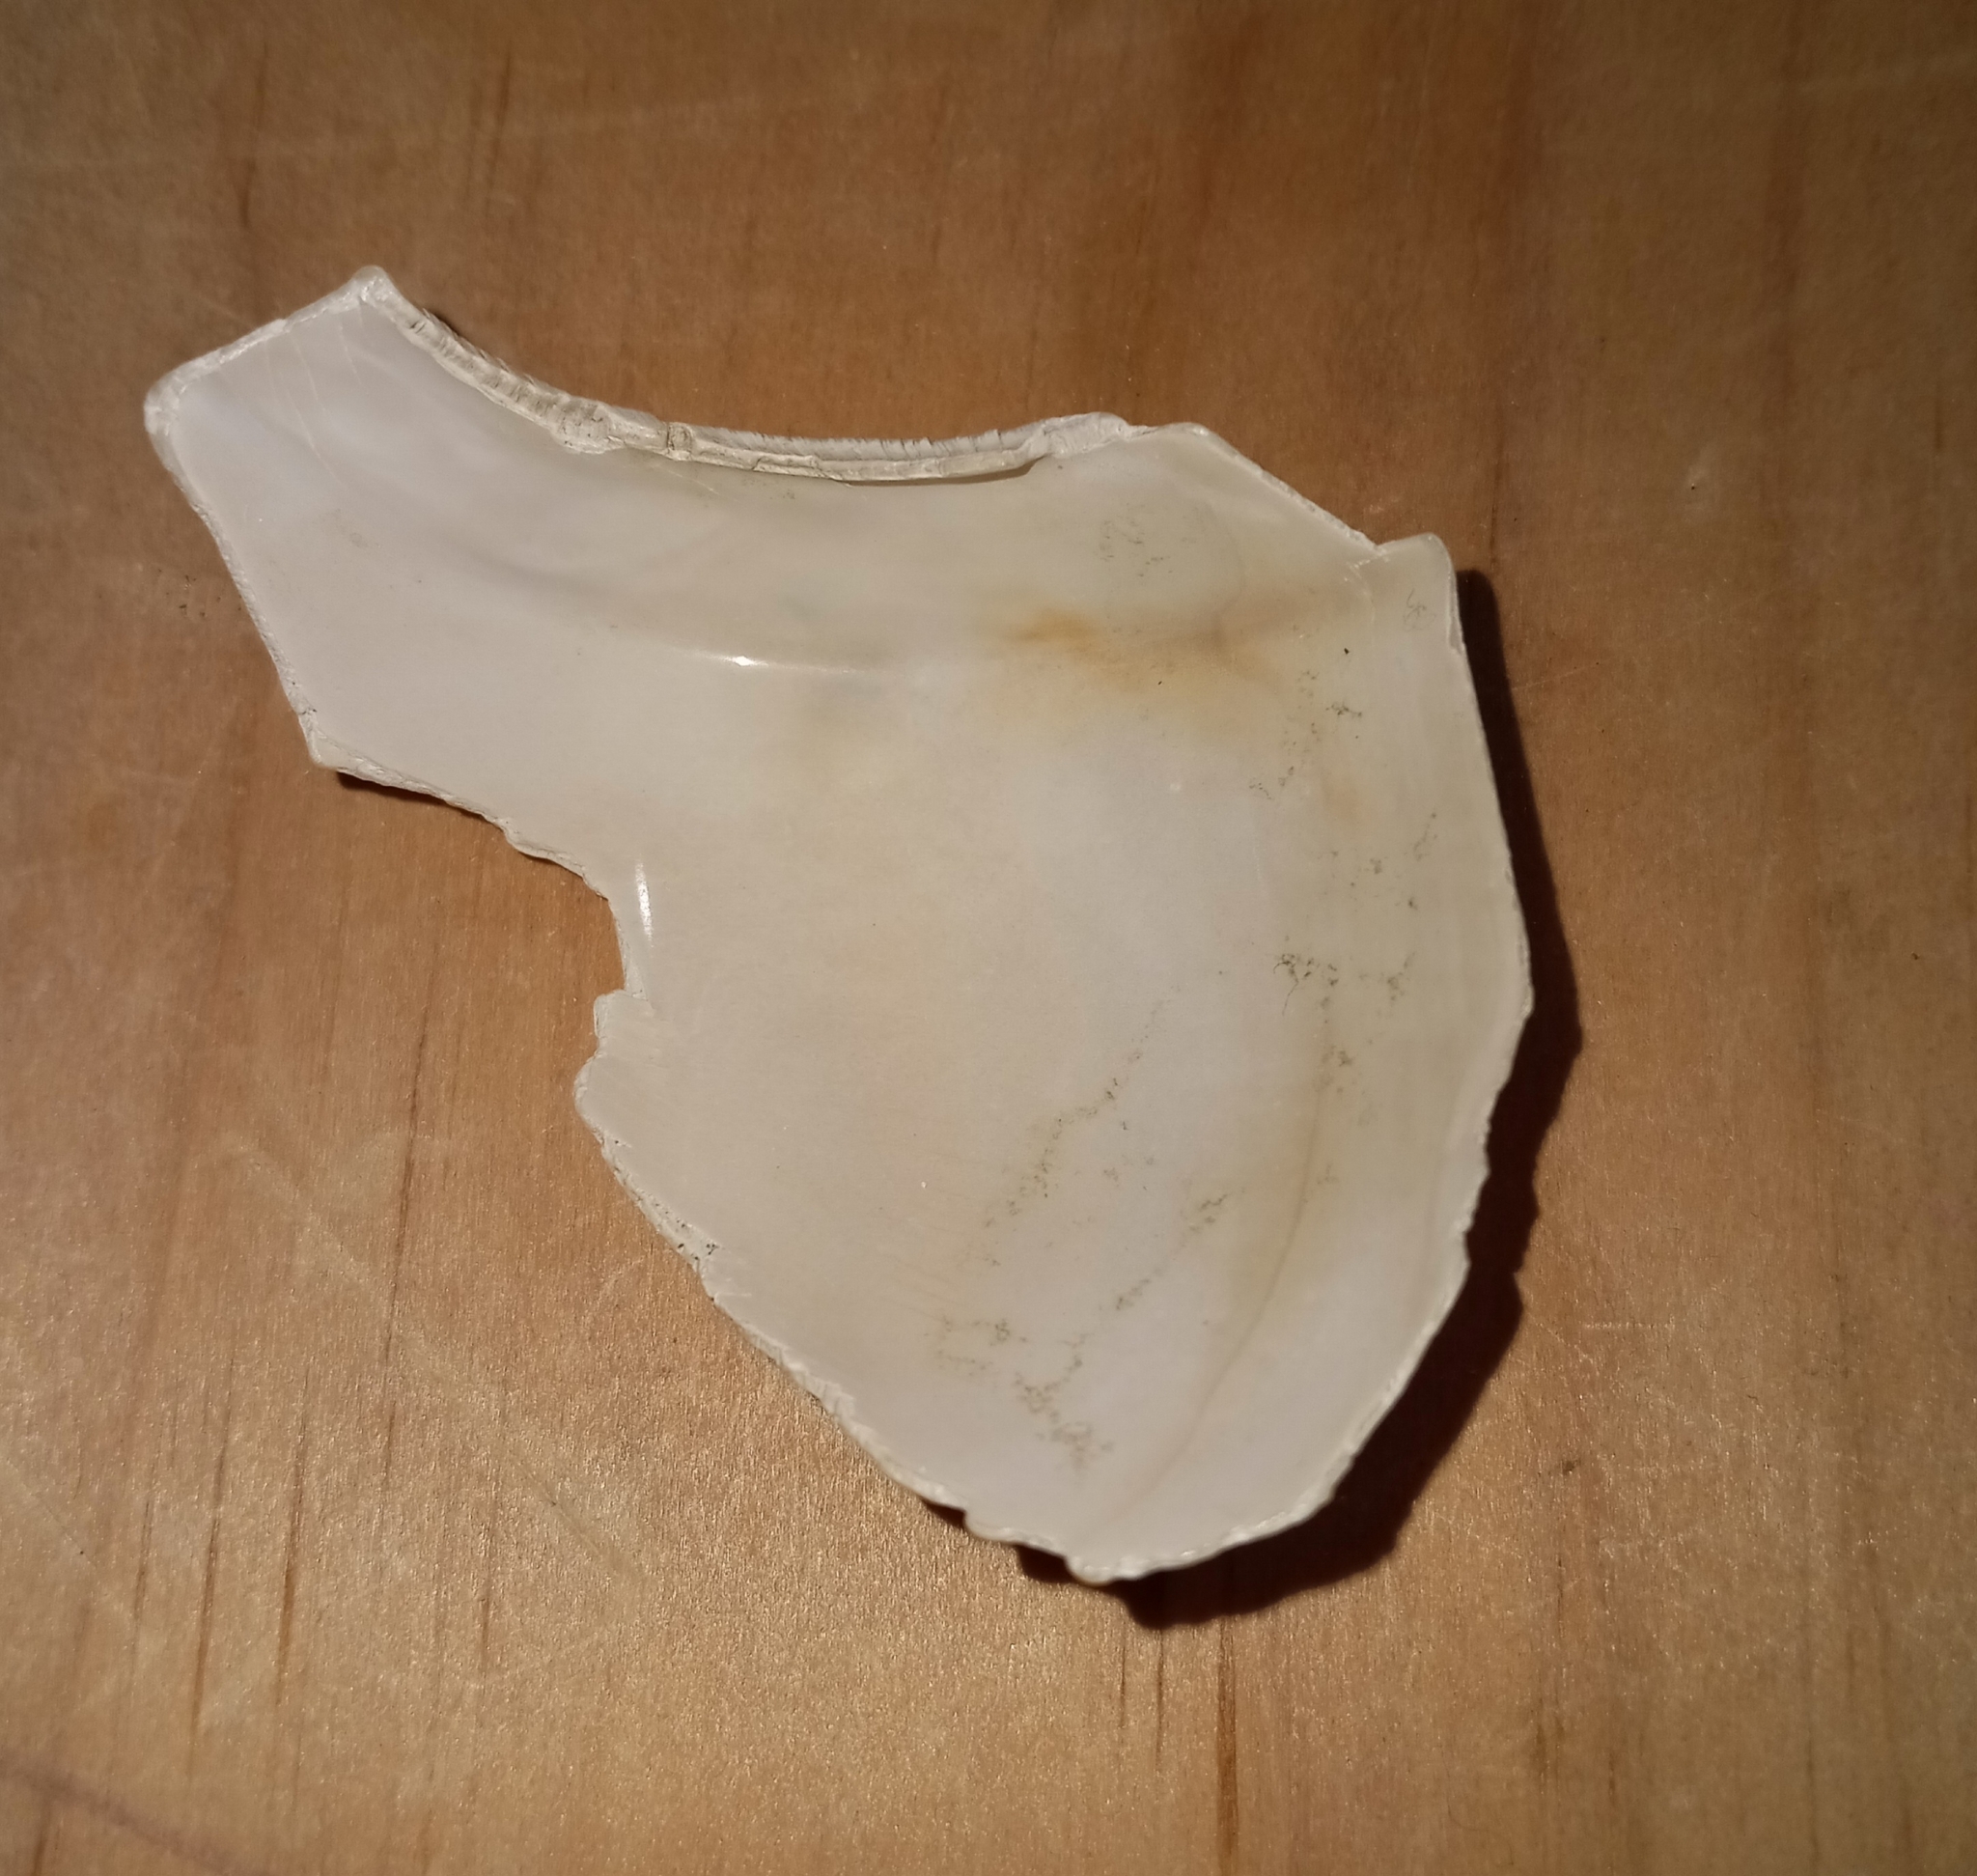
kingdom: Animalia
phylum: Mollusca
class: Gastropoda
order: Neogastropoda
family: Busyconidae
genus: Fulguropsis
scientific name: Fulguropsis pyruloides
